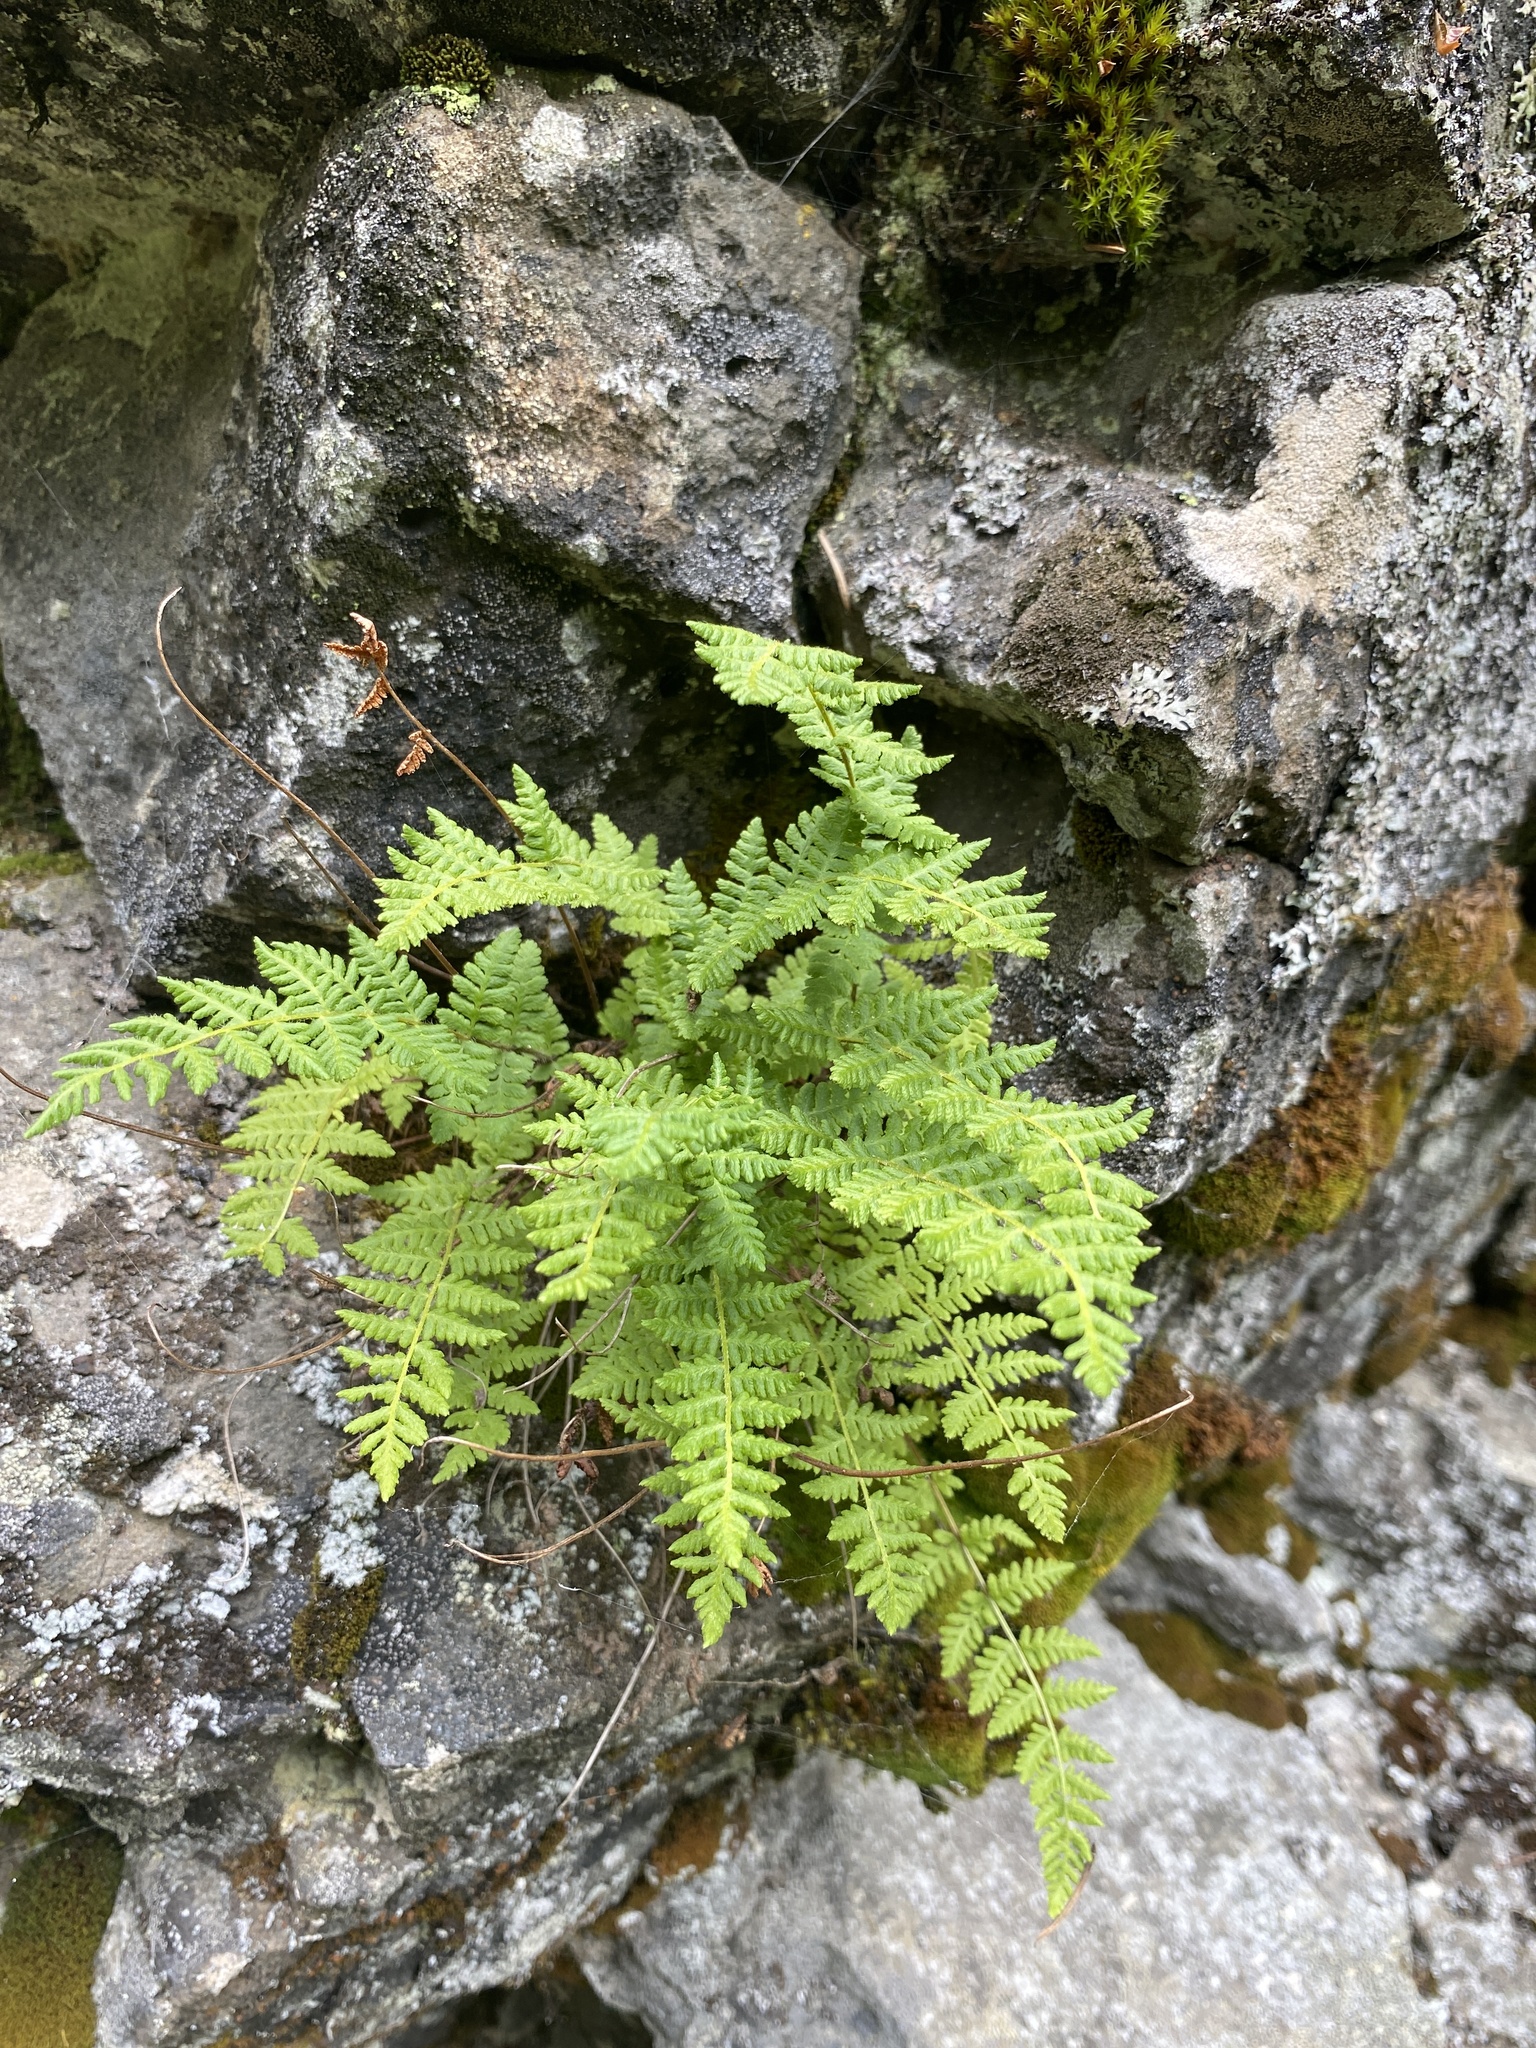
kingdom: Plantae
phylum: Tracheophyta
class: Polypodiopsida
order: Polypodiales
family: Woodsiaceae
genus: Physematium
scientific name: Physematium scopulinum
